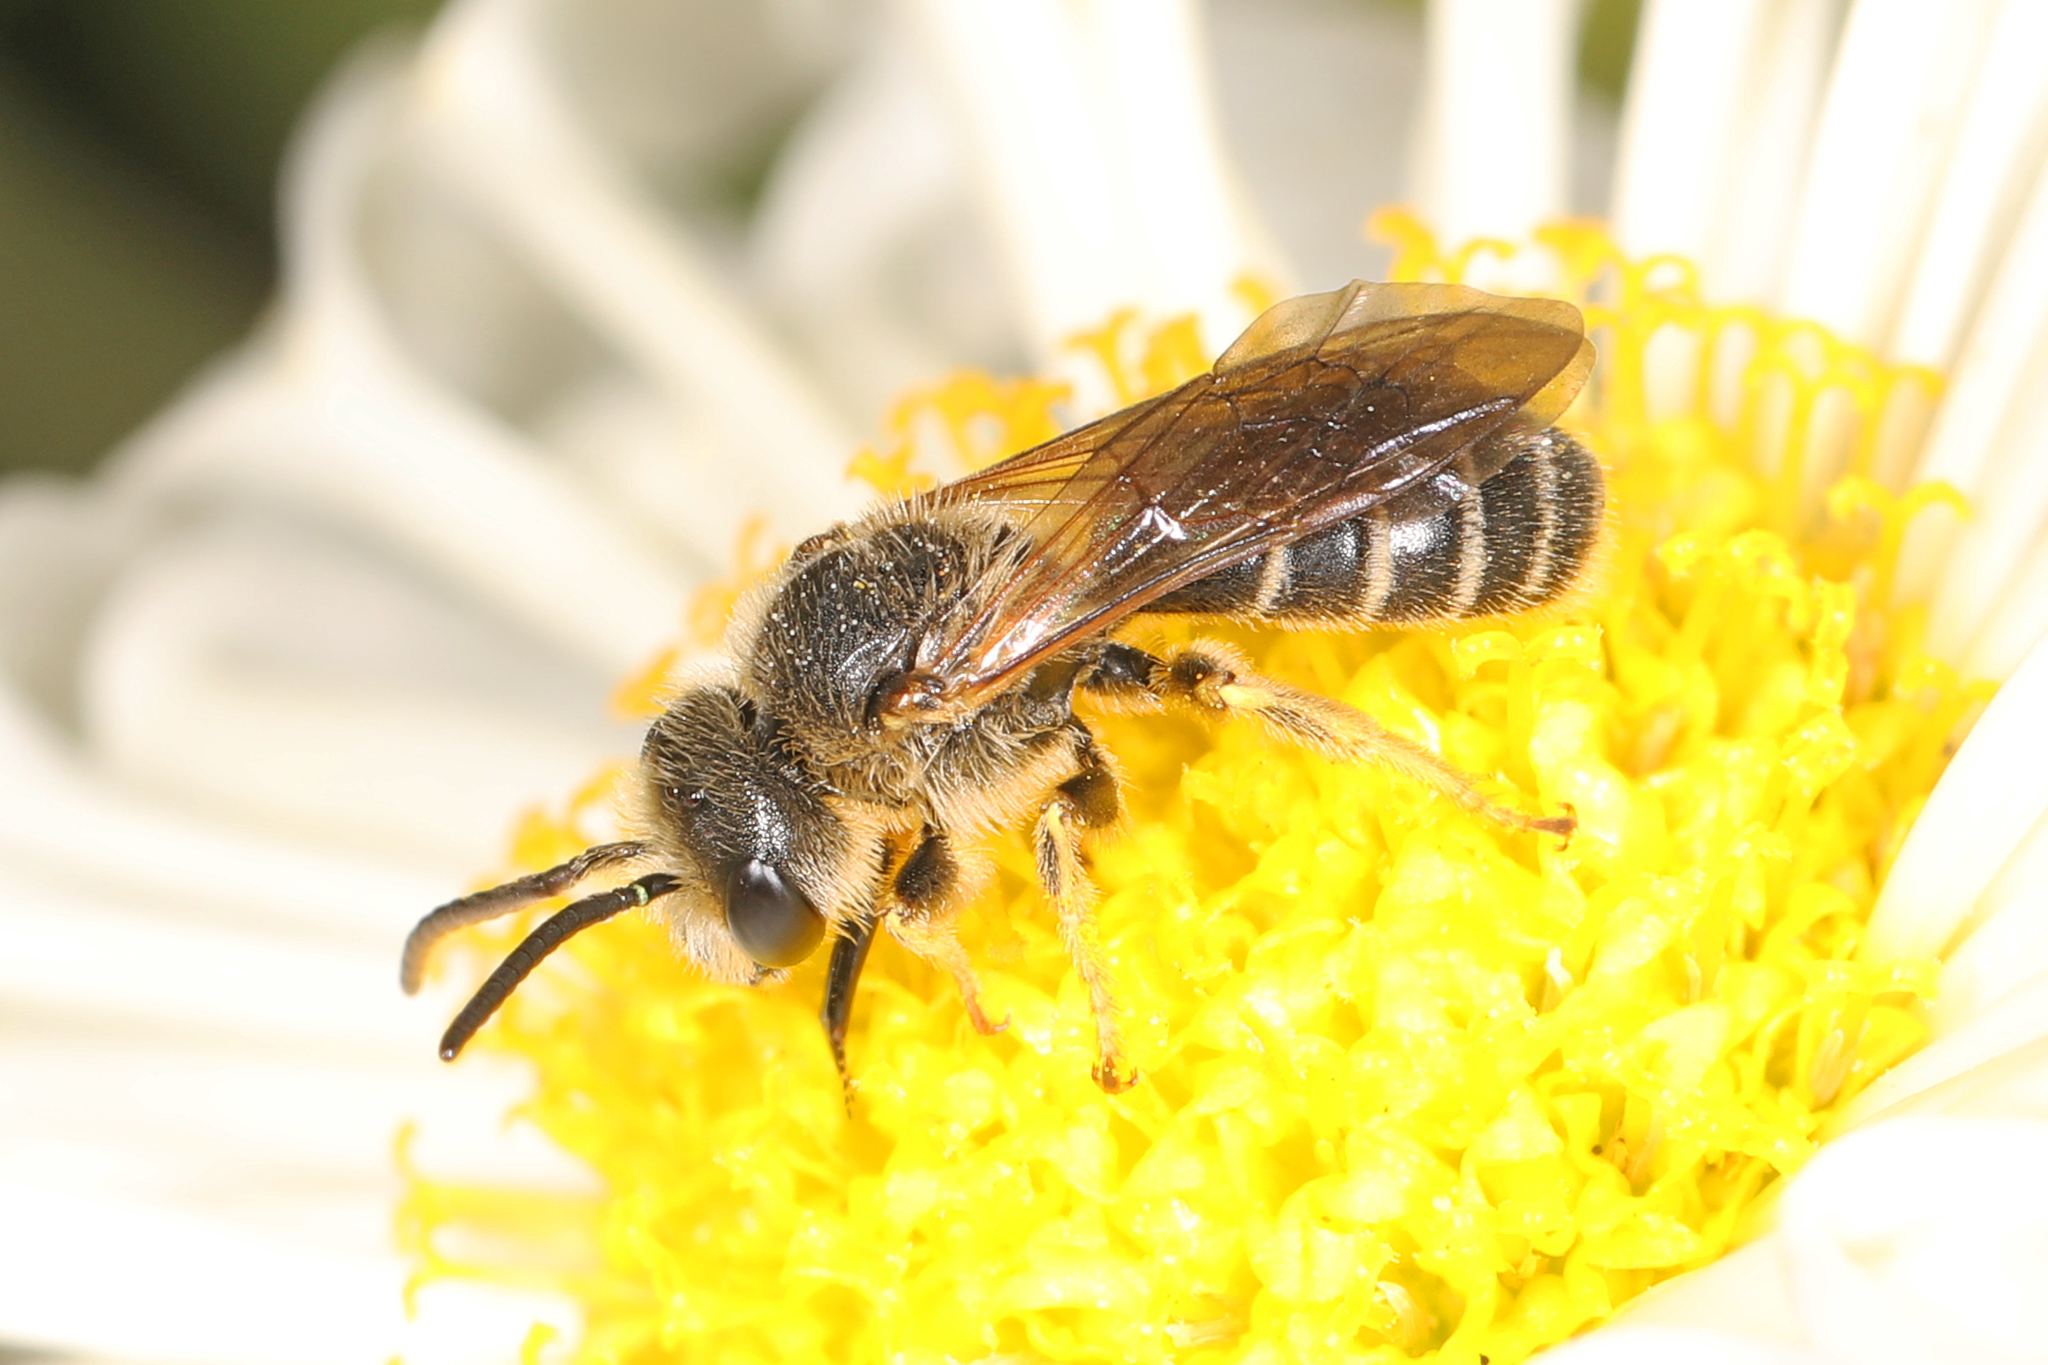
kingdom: Animalia
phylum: Arthropoda
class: Insecta
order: Hymenoptera
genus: Odontalictus
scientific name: Odontalictus
